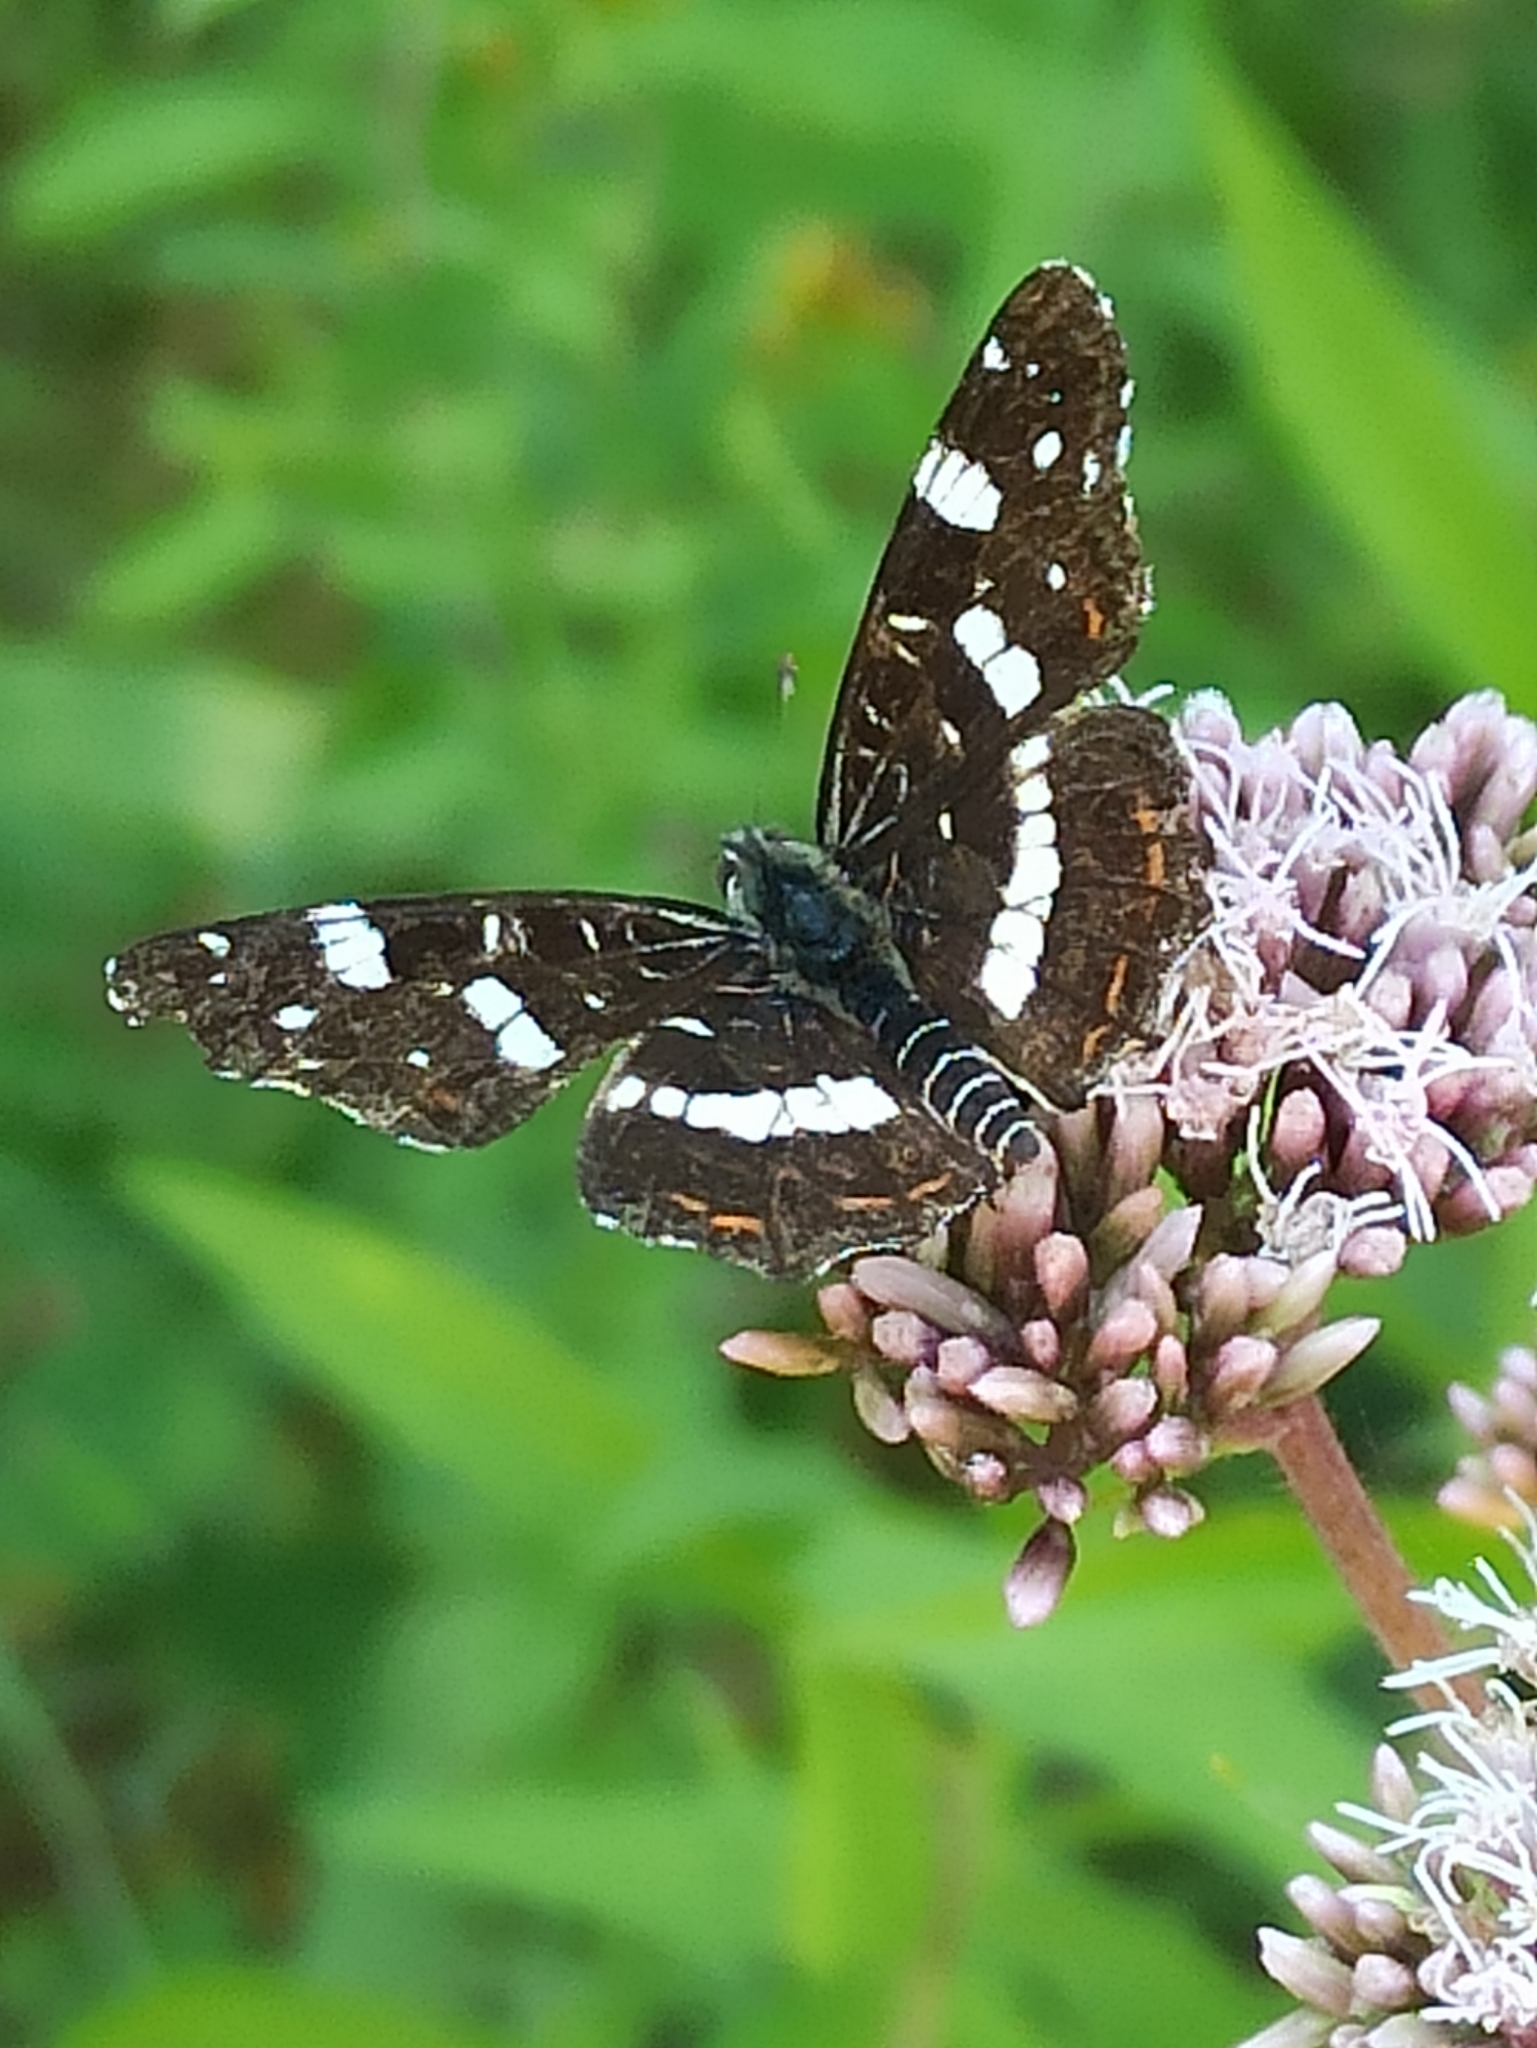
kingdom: Animalia
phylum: Arthropoda
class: Insecta
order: Lepidoptera
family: Nymphalidae
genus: Araschnia
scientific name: Araschnia levana
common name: Map butterfly
